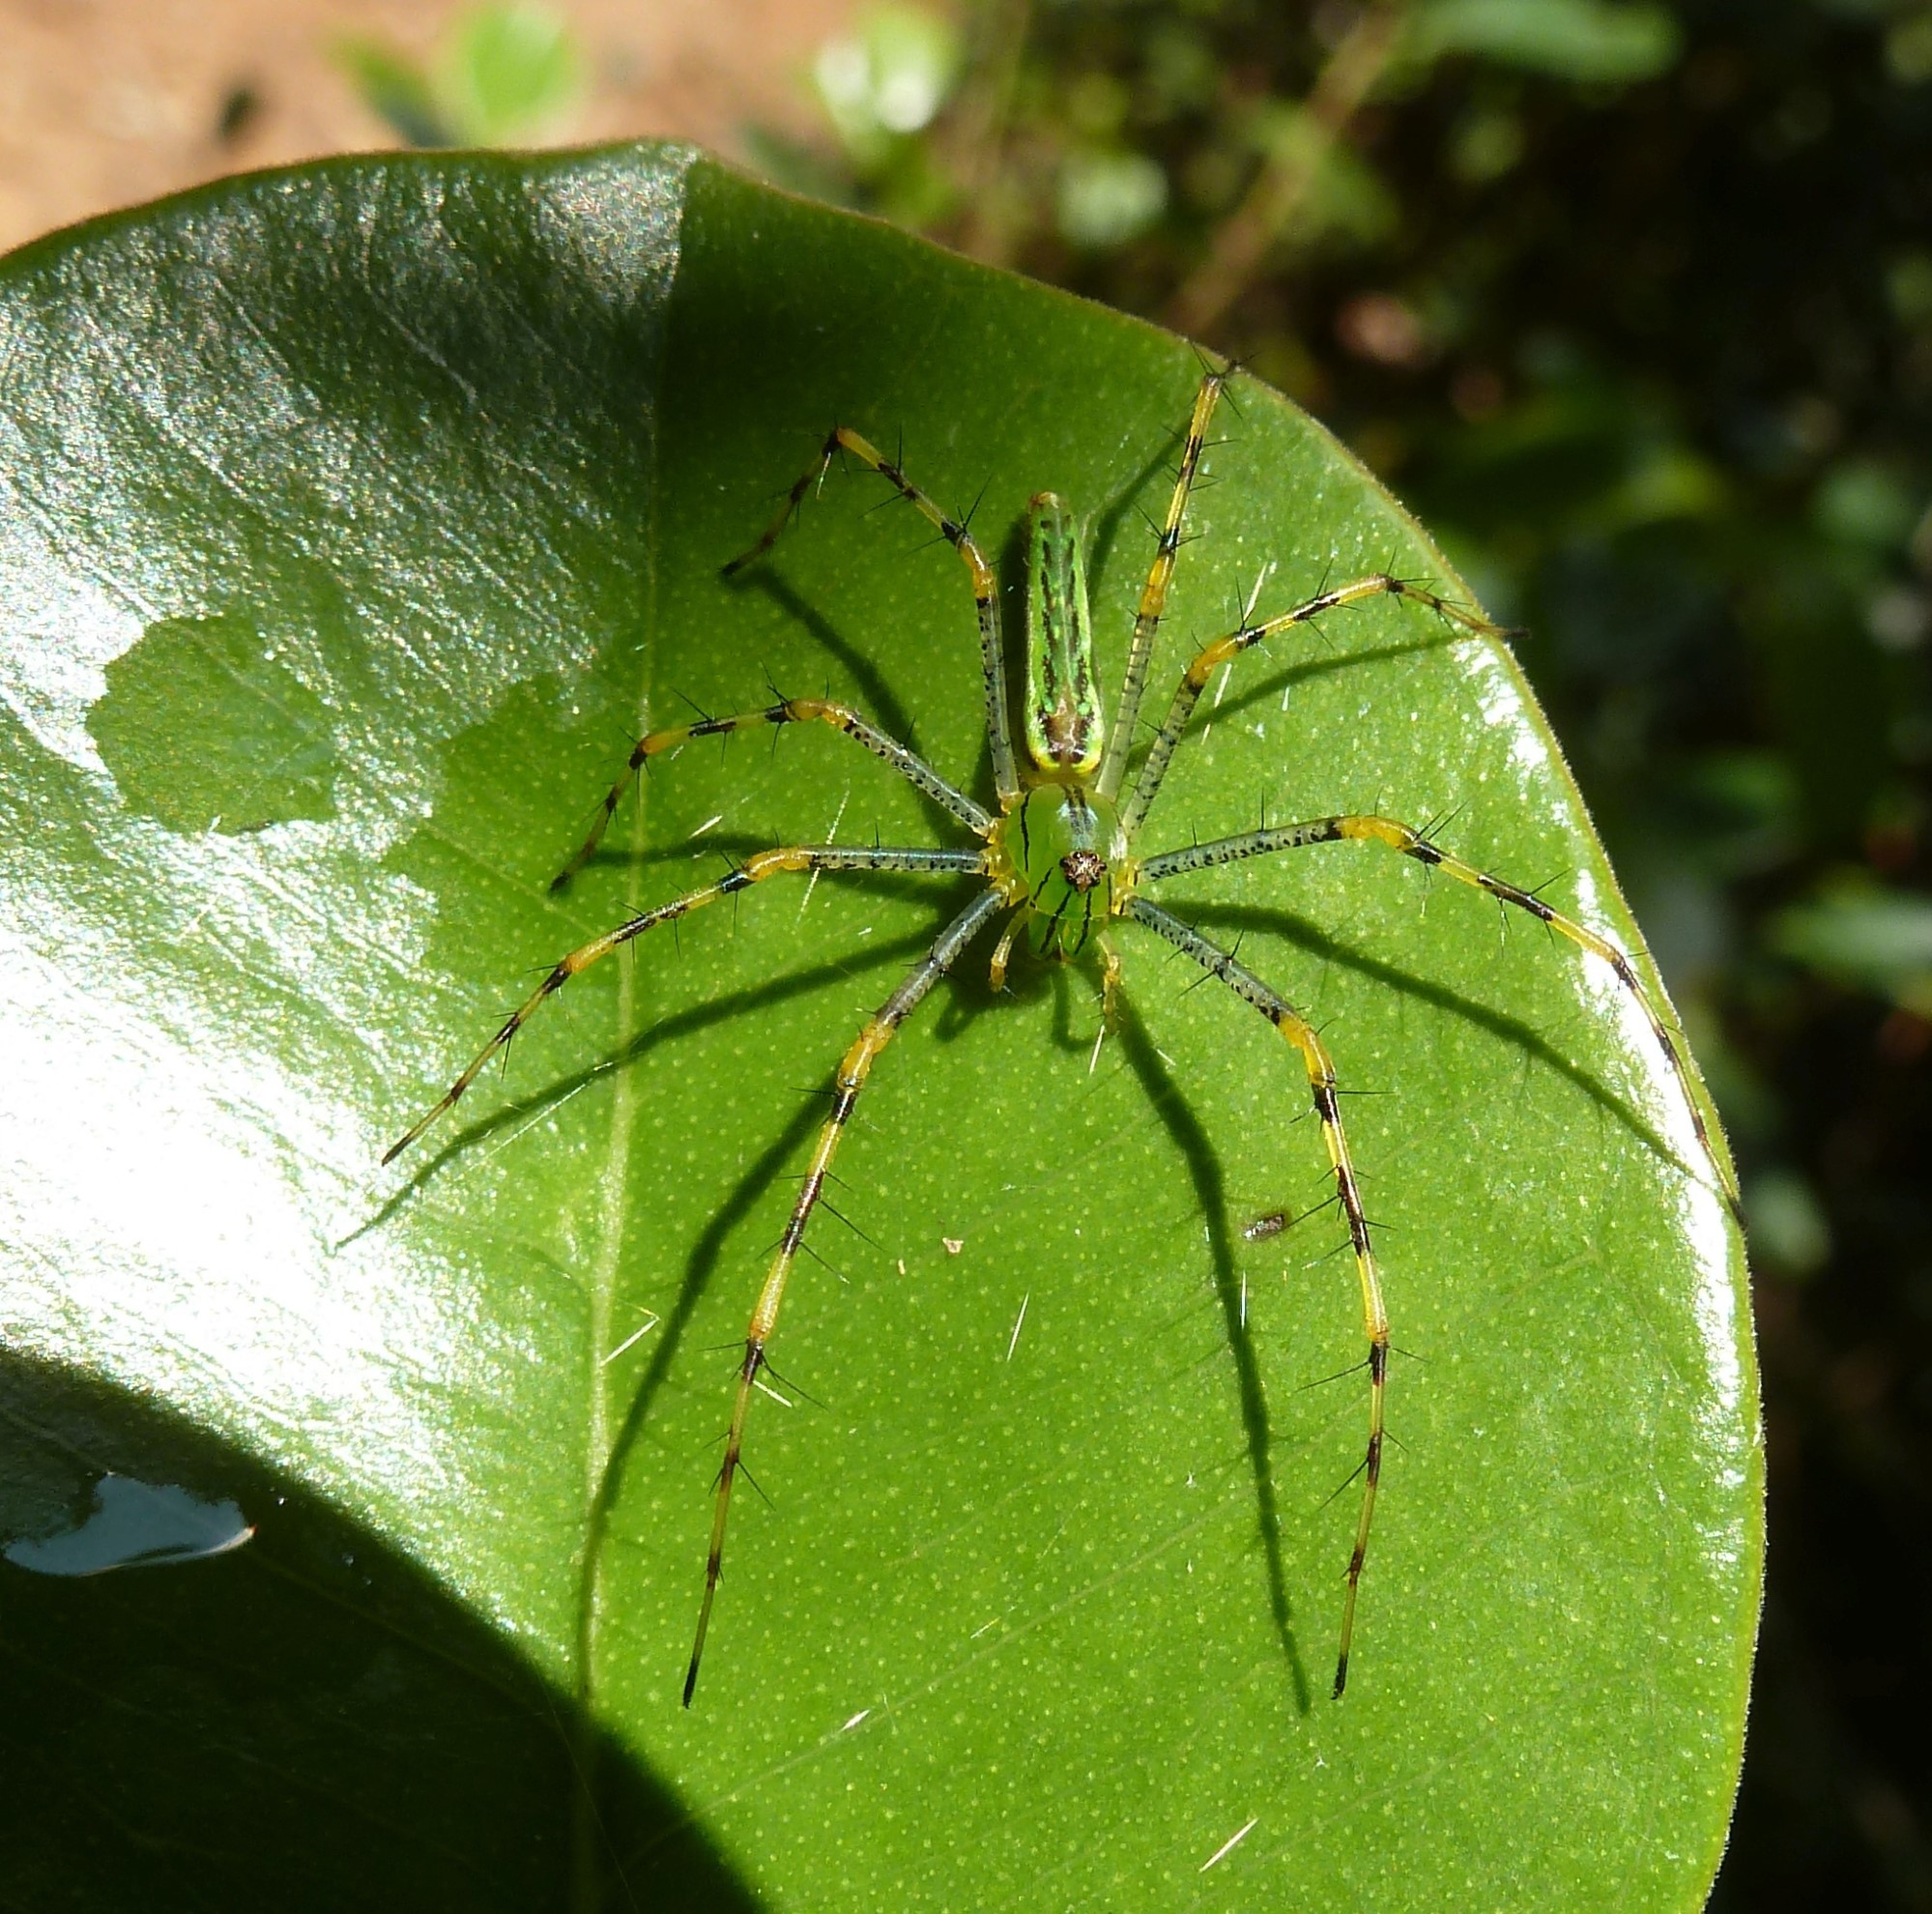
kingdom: Animalia
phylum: Arthropoda
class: Arachnida
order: Araneae
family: Oxyopidae
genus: Peucetia
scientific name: Peucetia lucasi
